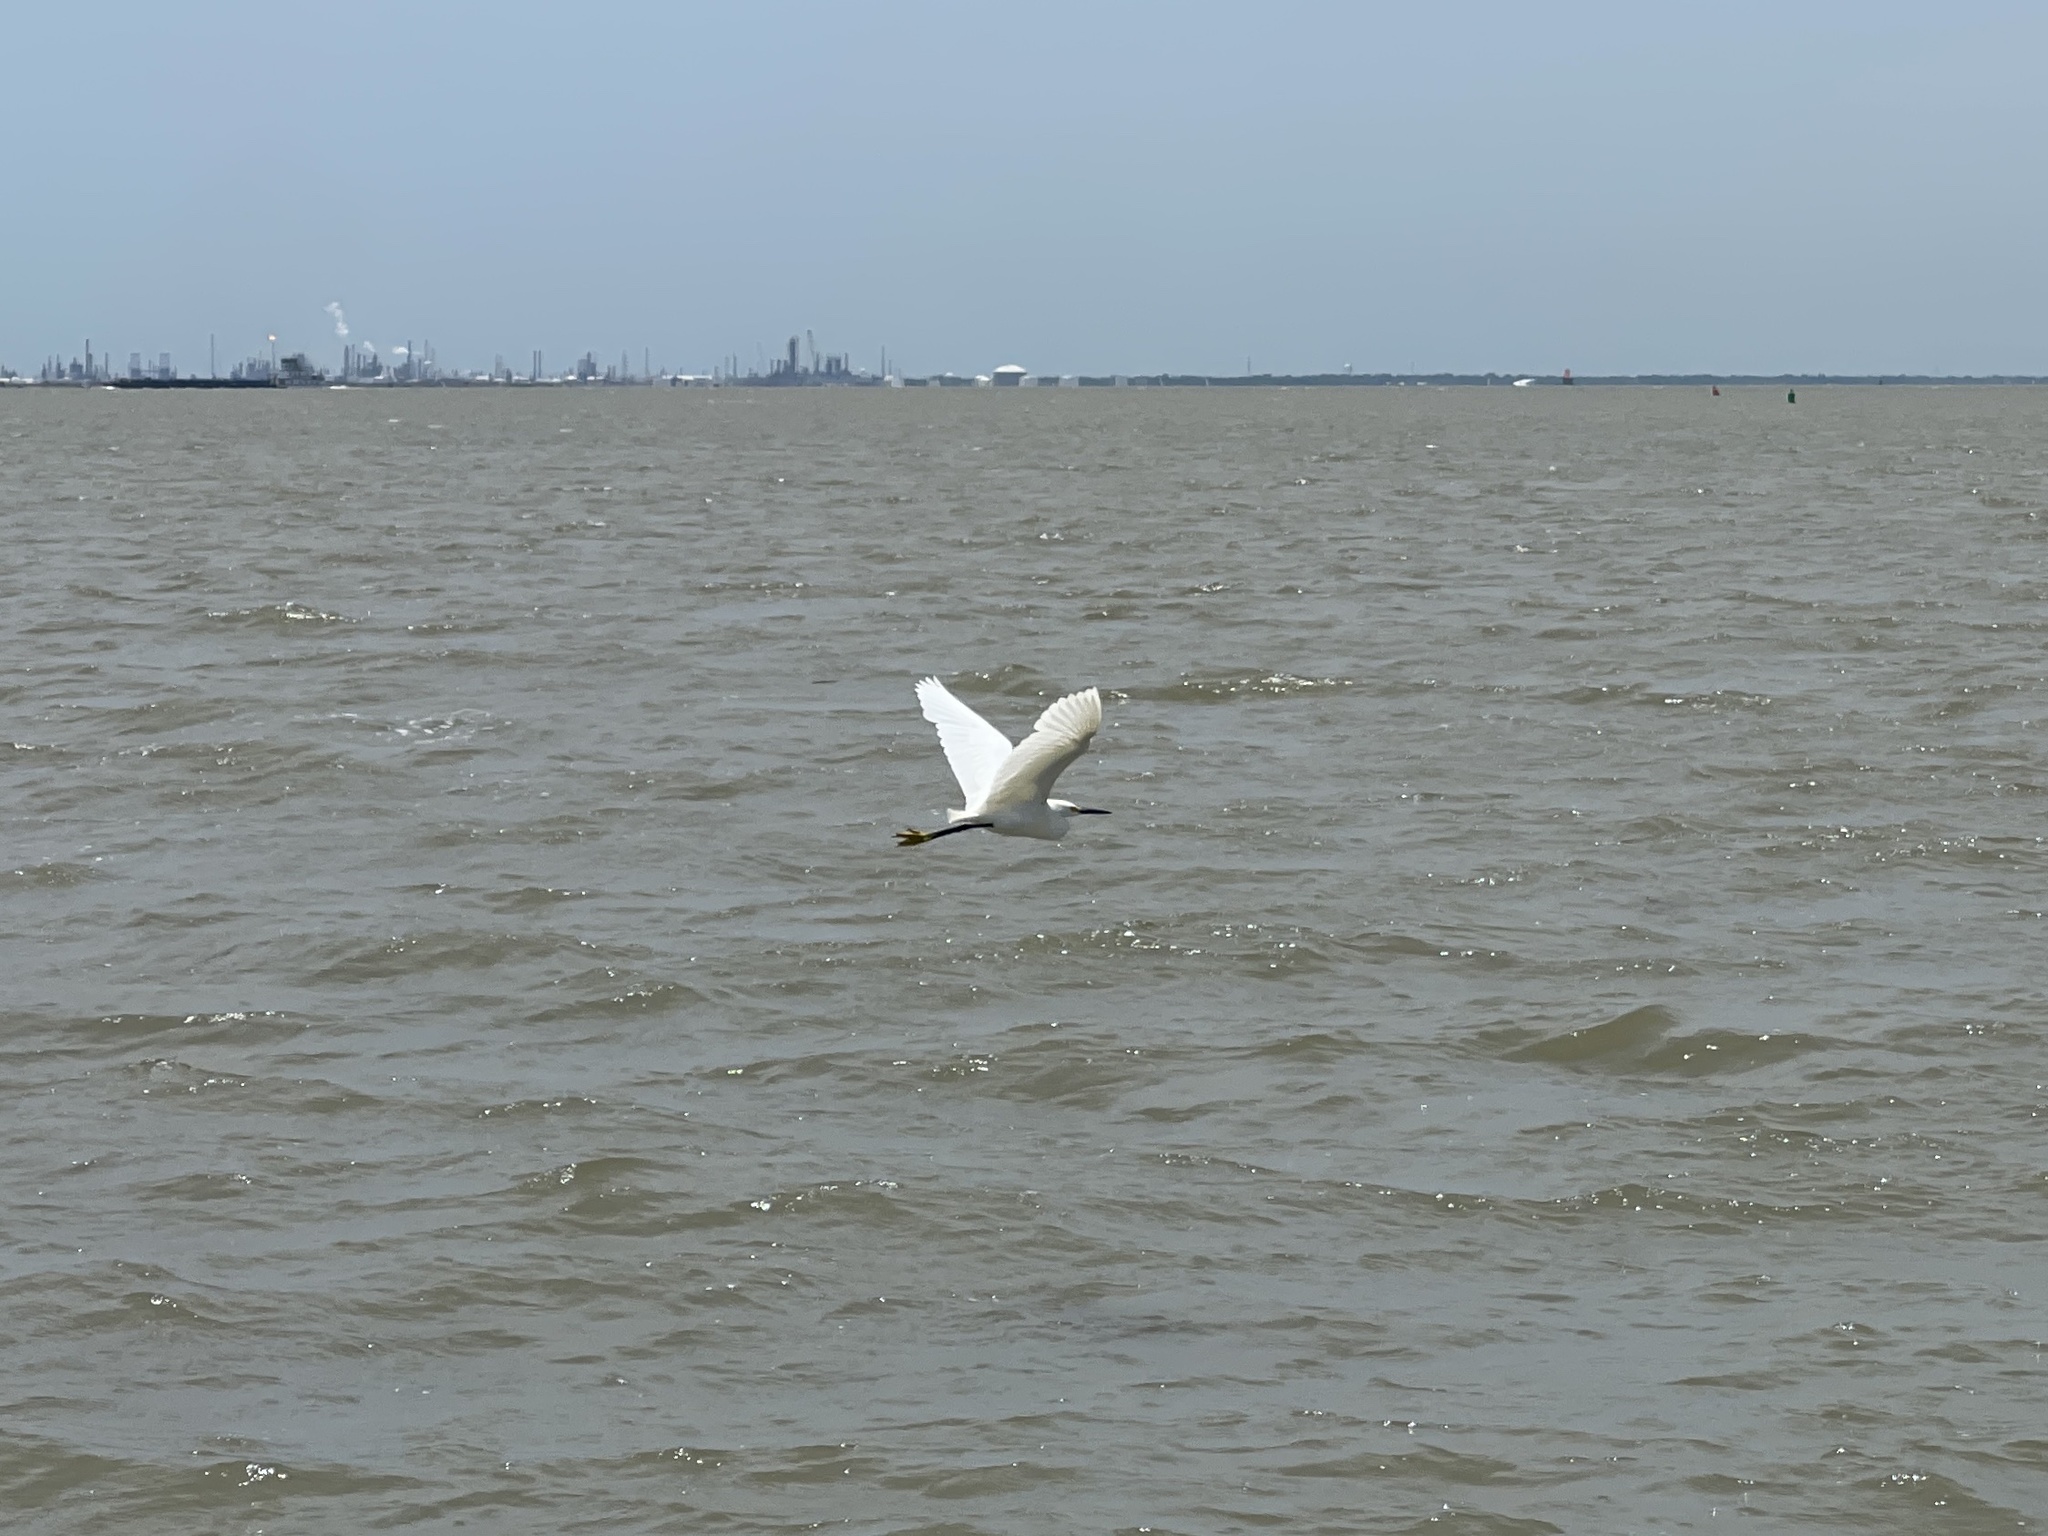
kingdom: Animalia
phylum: Chordata
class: Aves
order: Pelecaniformes
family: Ardeidae
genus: Egretta
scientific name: Egretta thula
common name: Snowy egret
